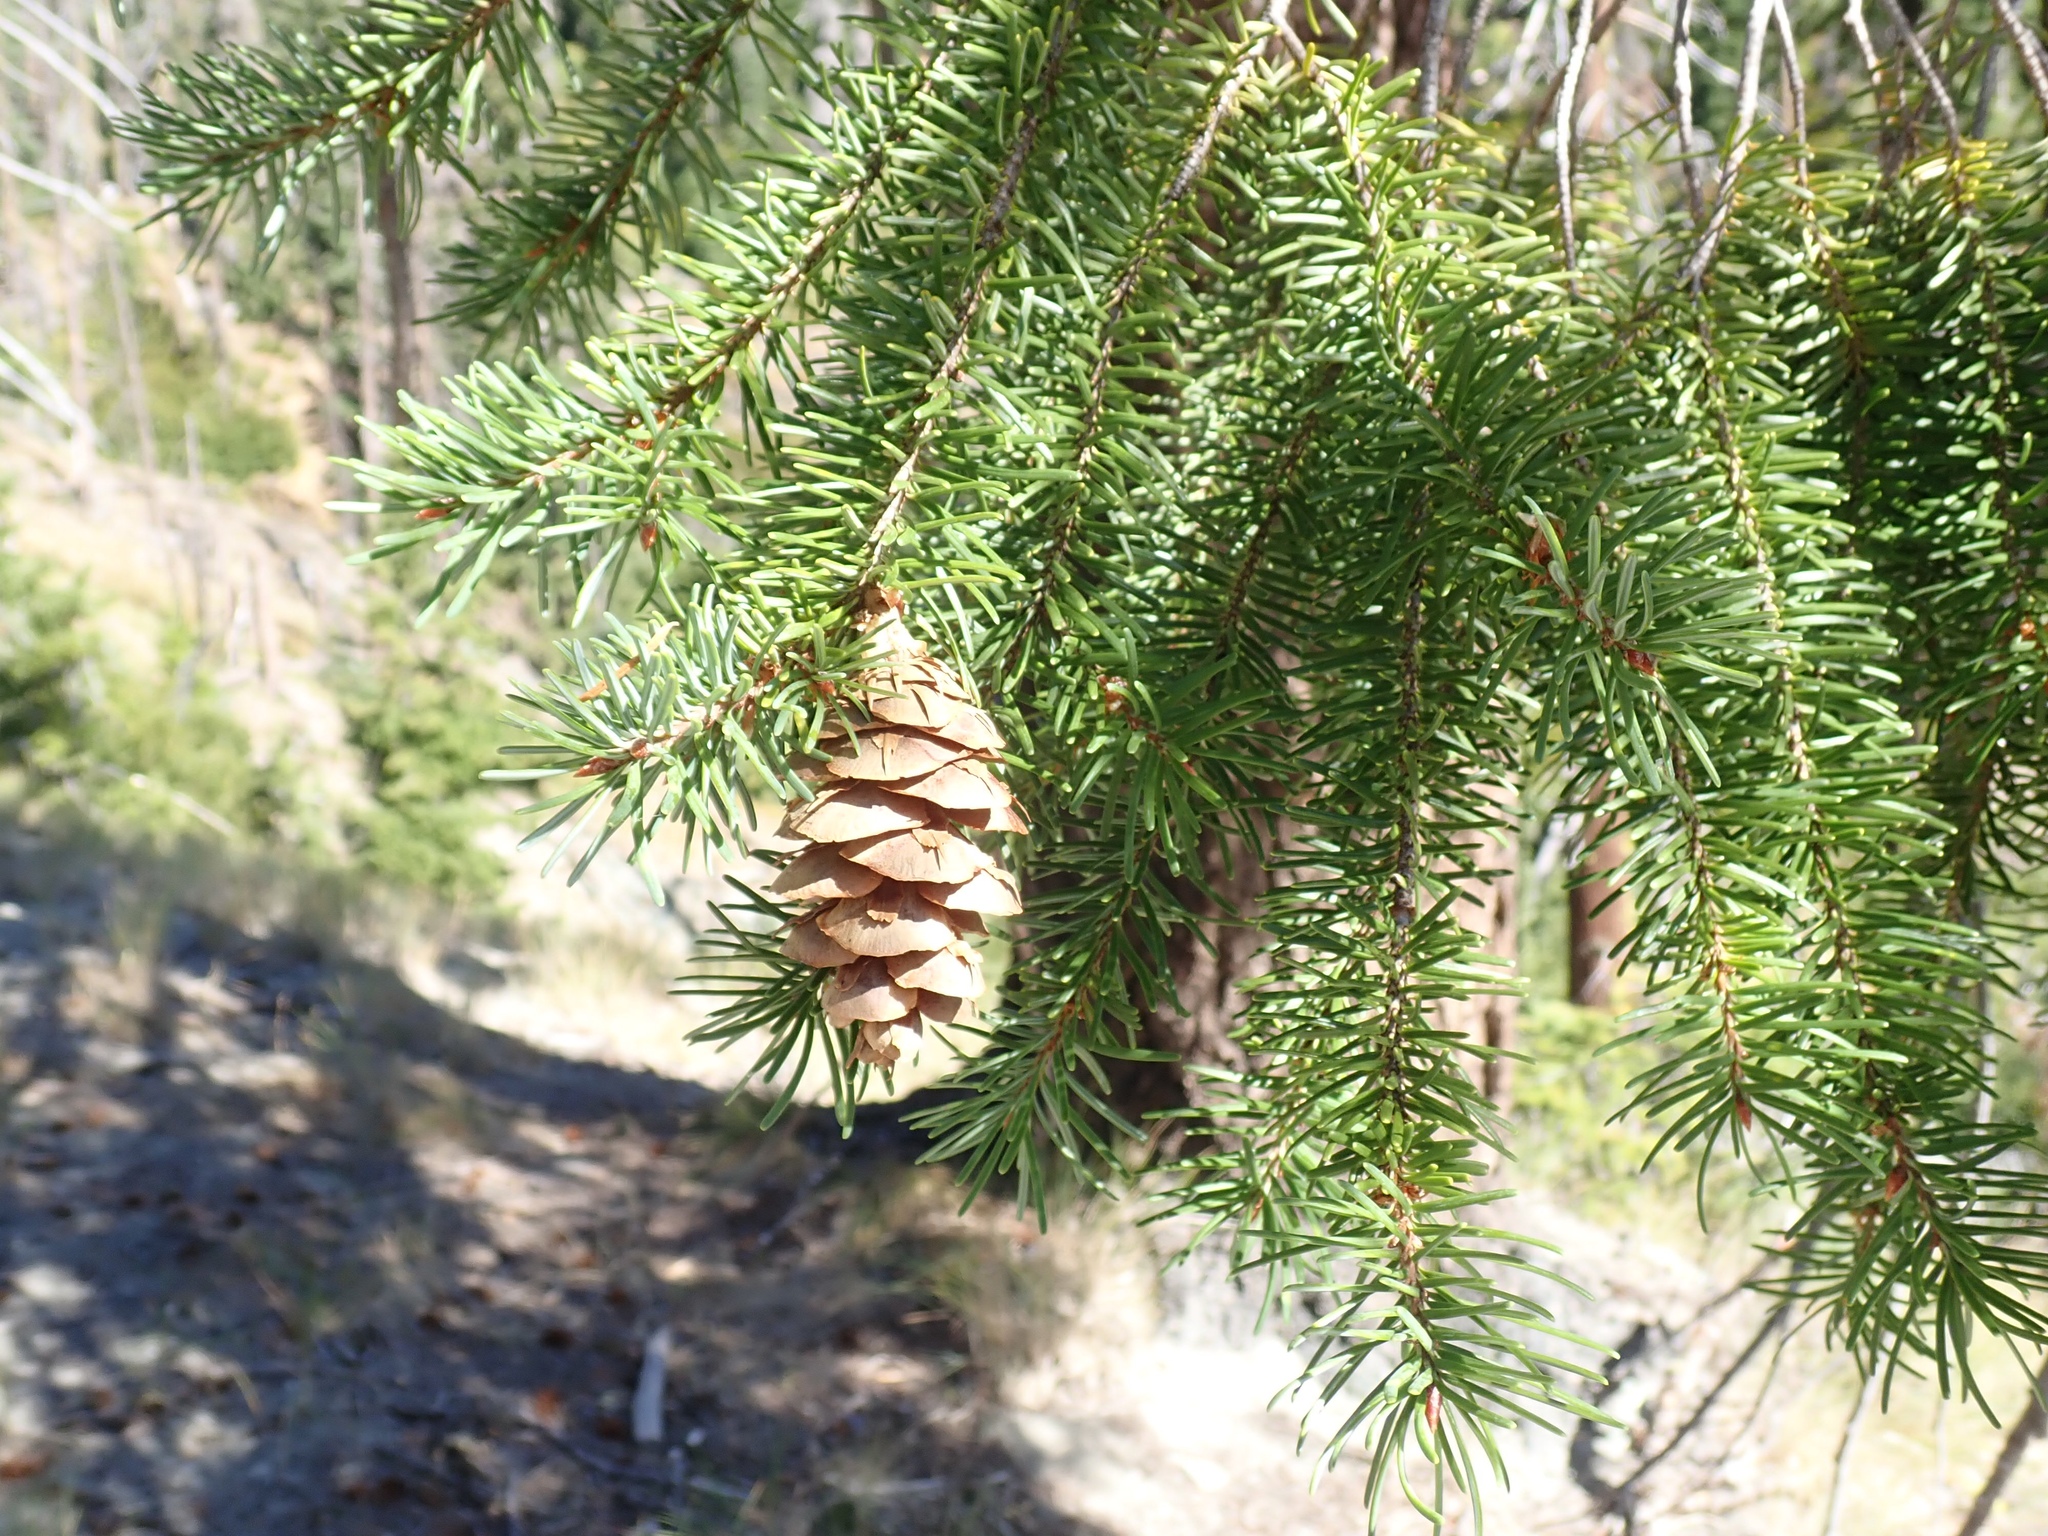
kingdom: Plantae
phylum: Tracheophyta
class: Pinopsida
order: Pinales
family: Pinaceae
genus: Pseudotsuga
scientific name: Pseudotsuga menziesii
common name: Douglas fir
